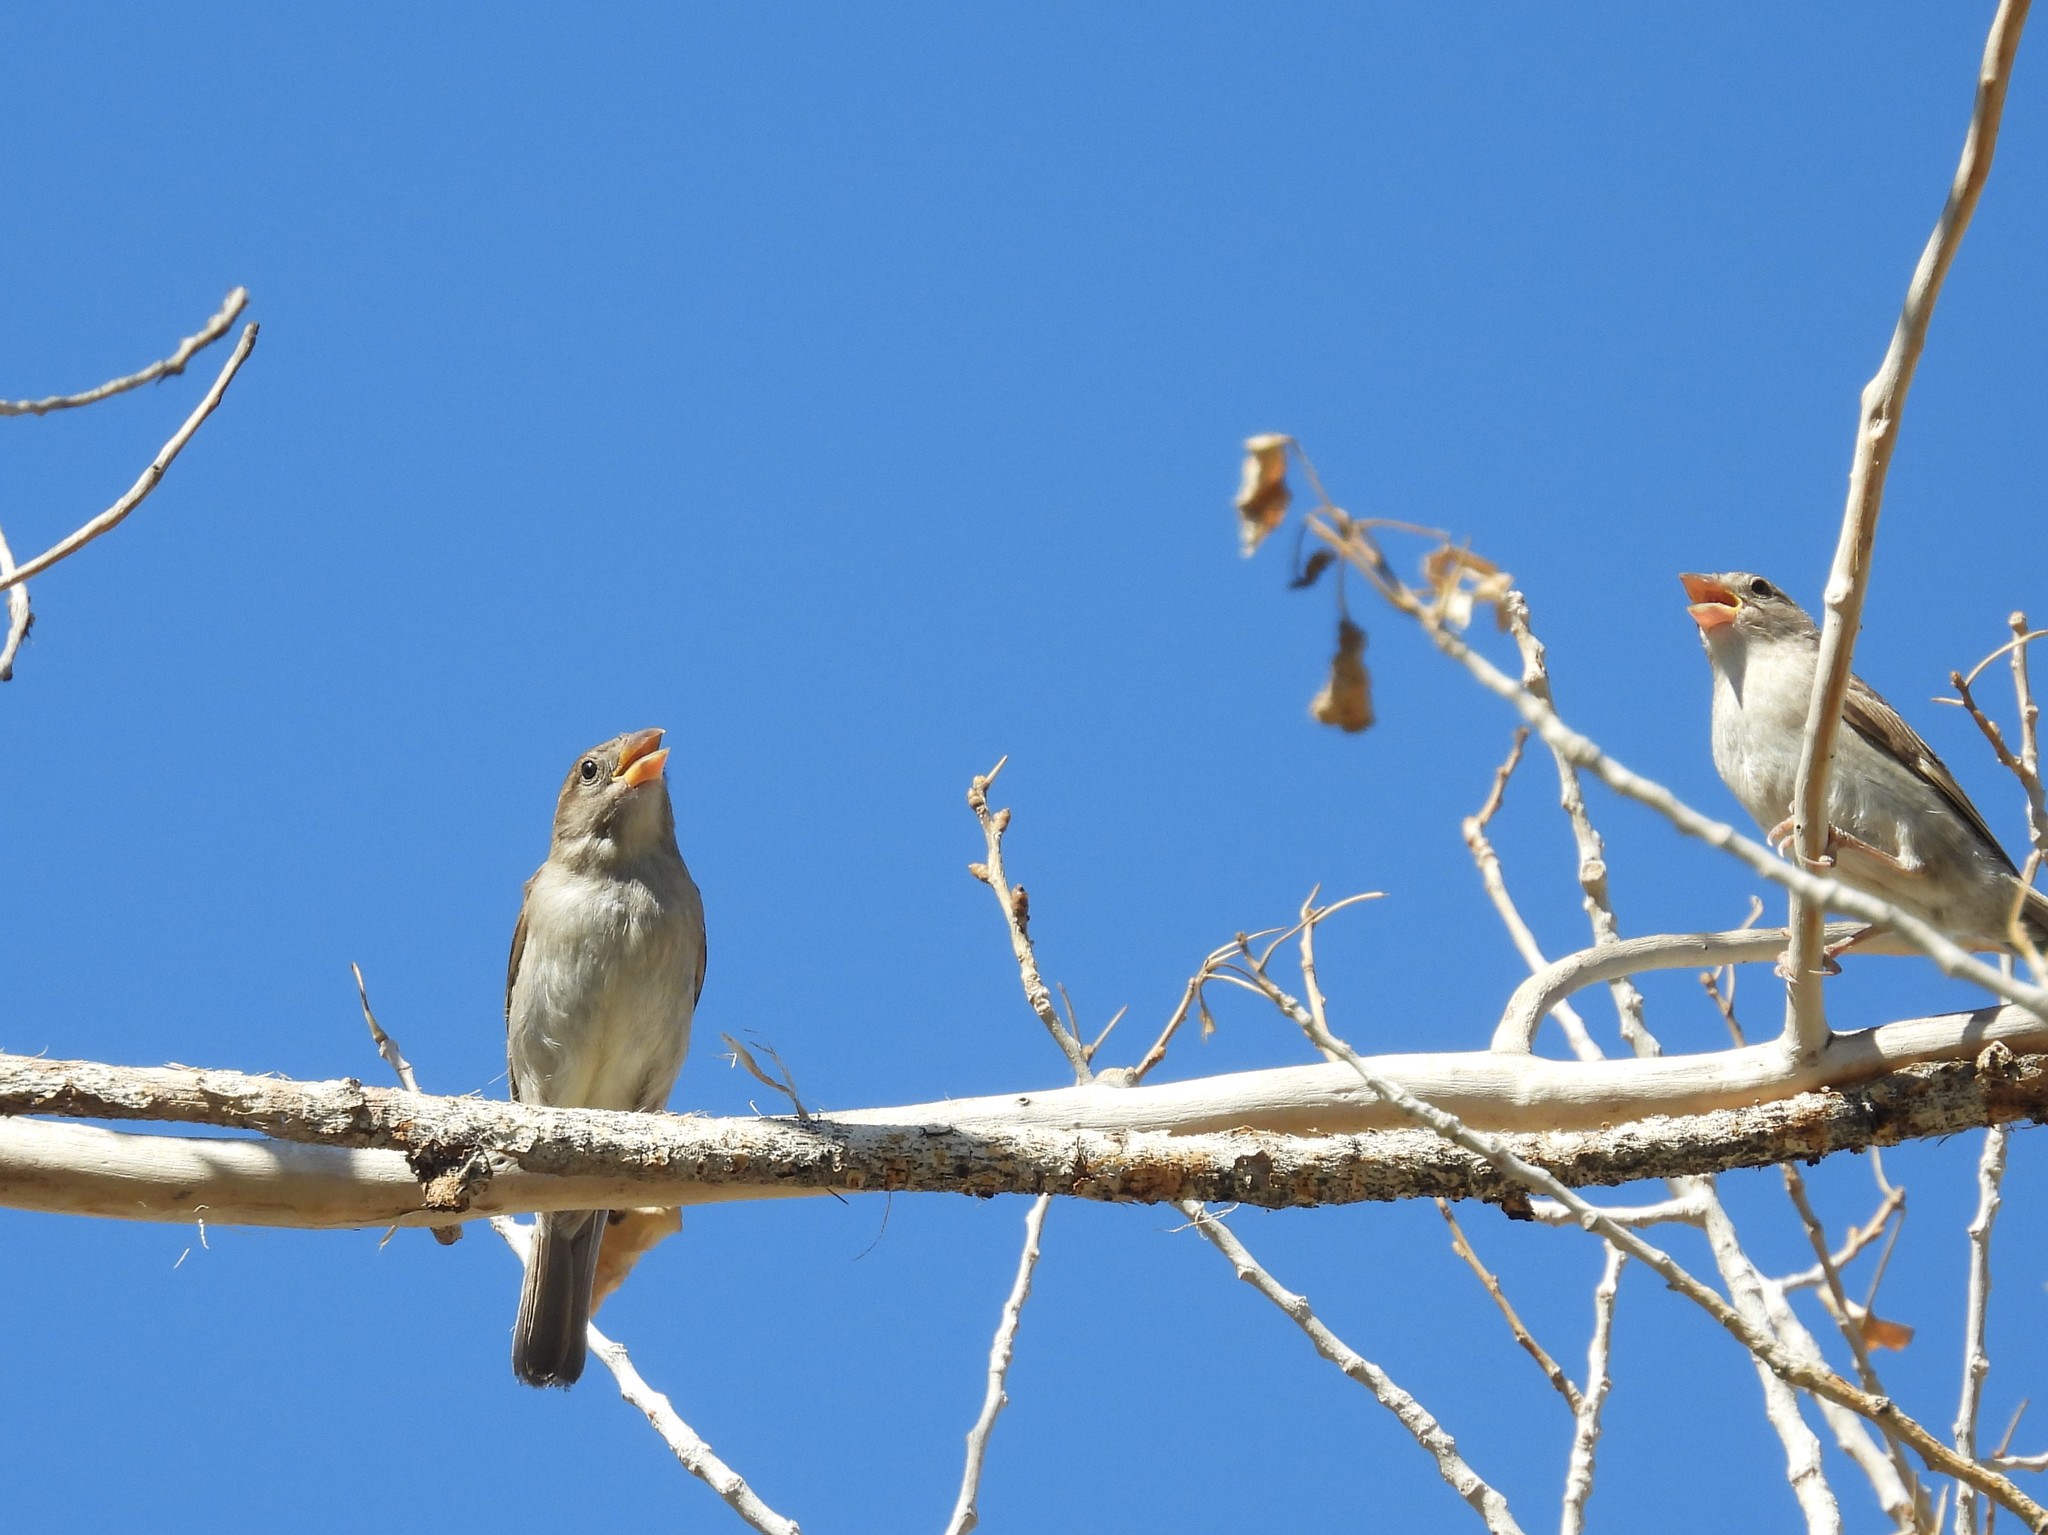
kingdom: Animalia
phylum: Chordata
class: Aves
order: Passeriformes
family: Passeridae
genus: Passer
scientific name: Passer domesticus
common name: House sparrow
